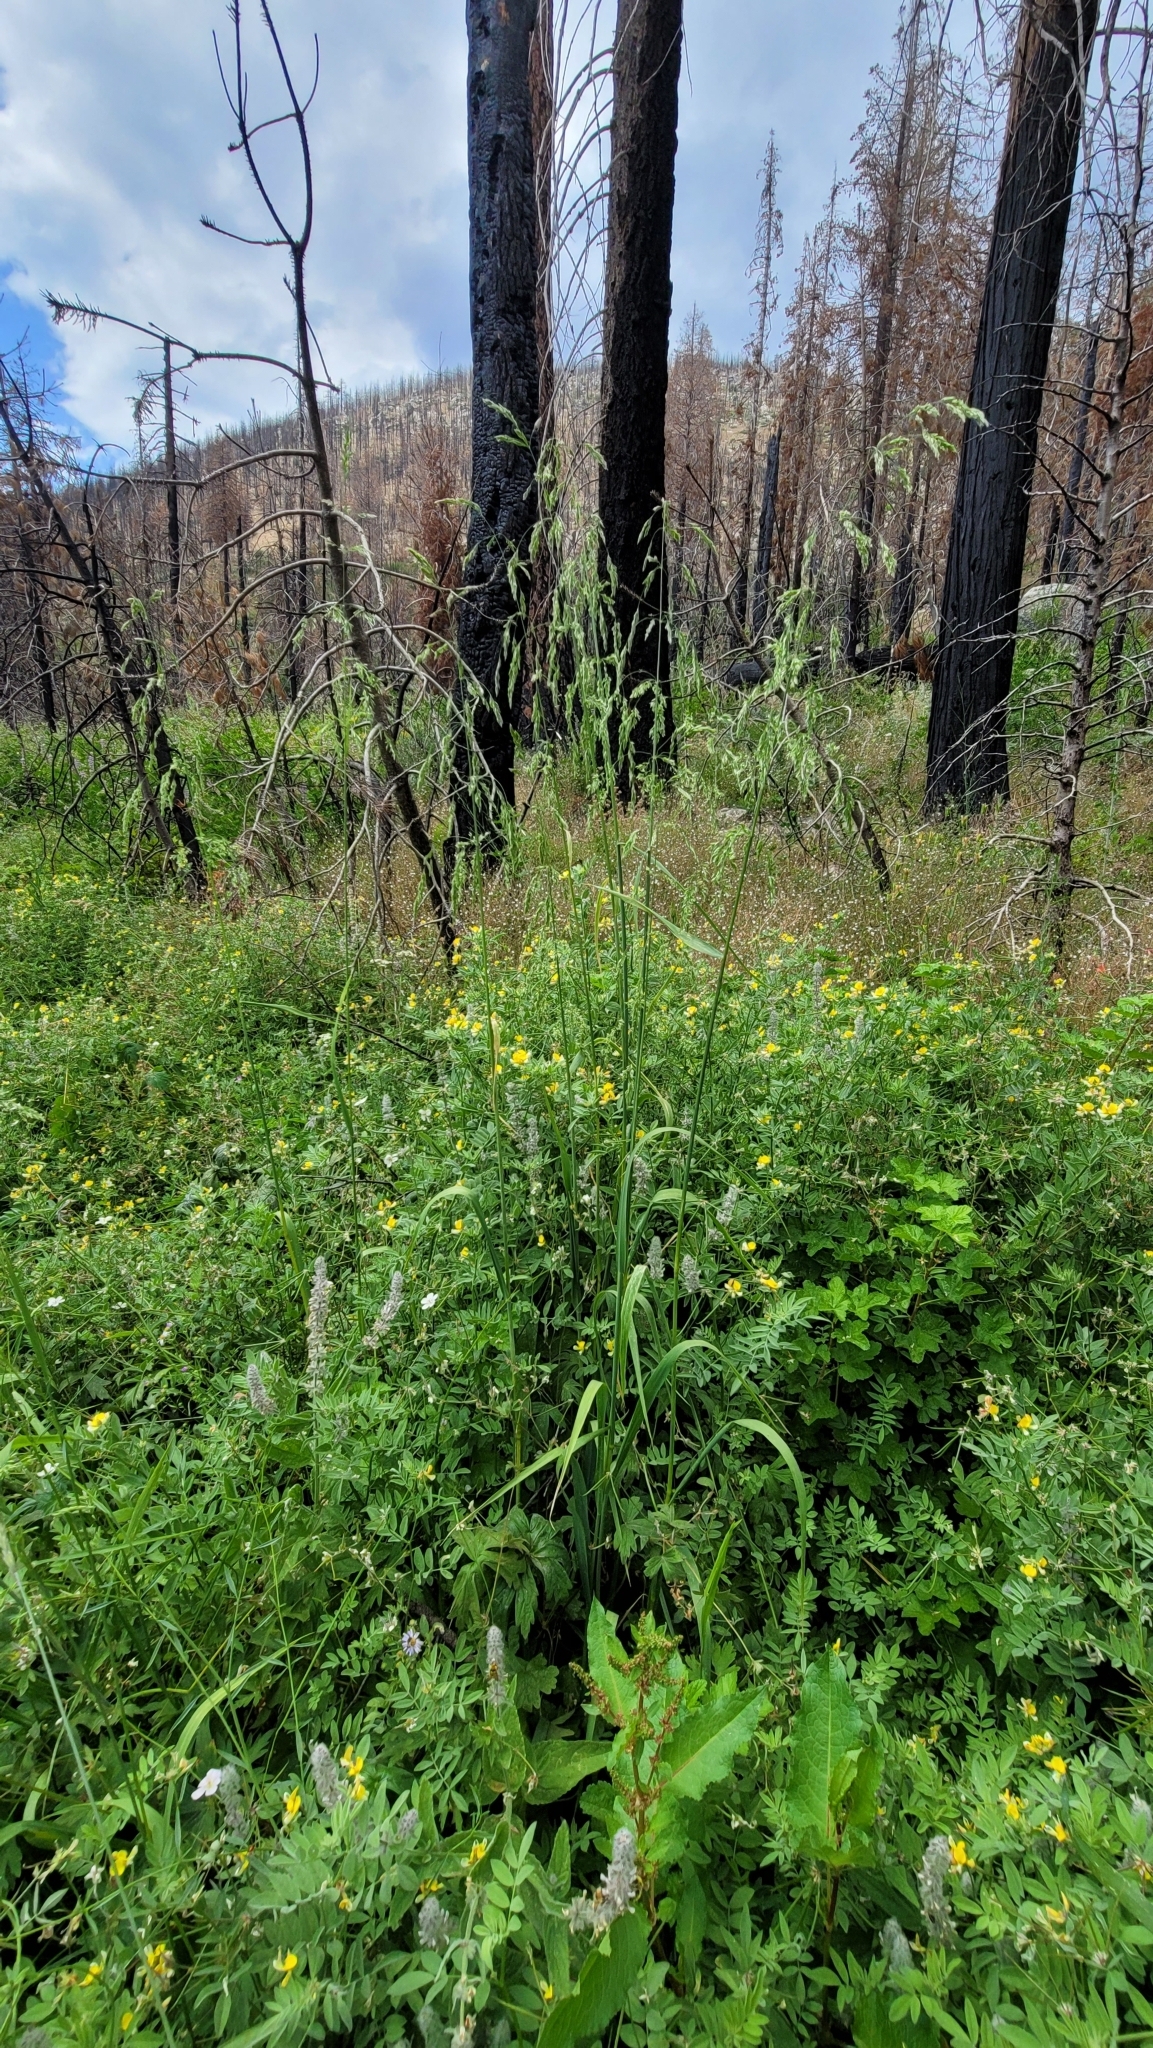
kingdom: Plantae
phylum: Tracheophyta
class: Liliopsida
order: Poales
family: Poaceae
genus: Cinna
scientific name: Cinna bolanderi
